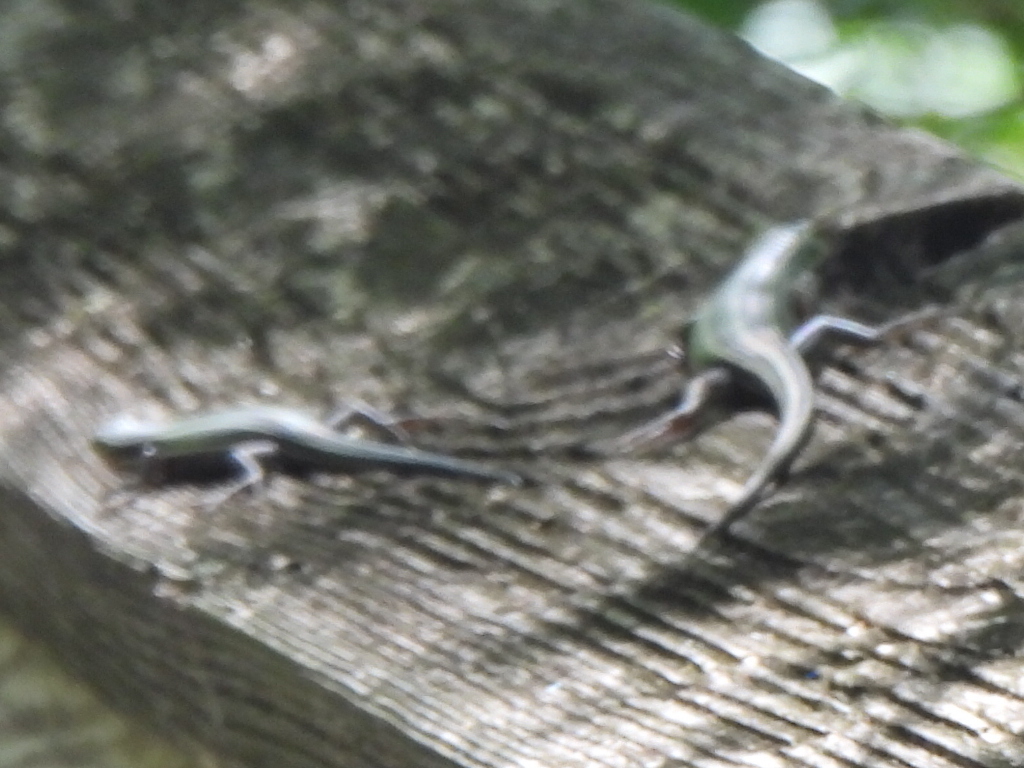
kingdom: Animalia
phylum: Chordata
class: Squamata
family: Scincidae
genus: Plestiodon
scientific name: Plestiodon fasciatus
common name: Five-lined skink
